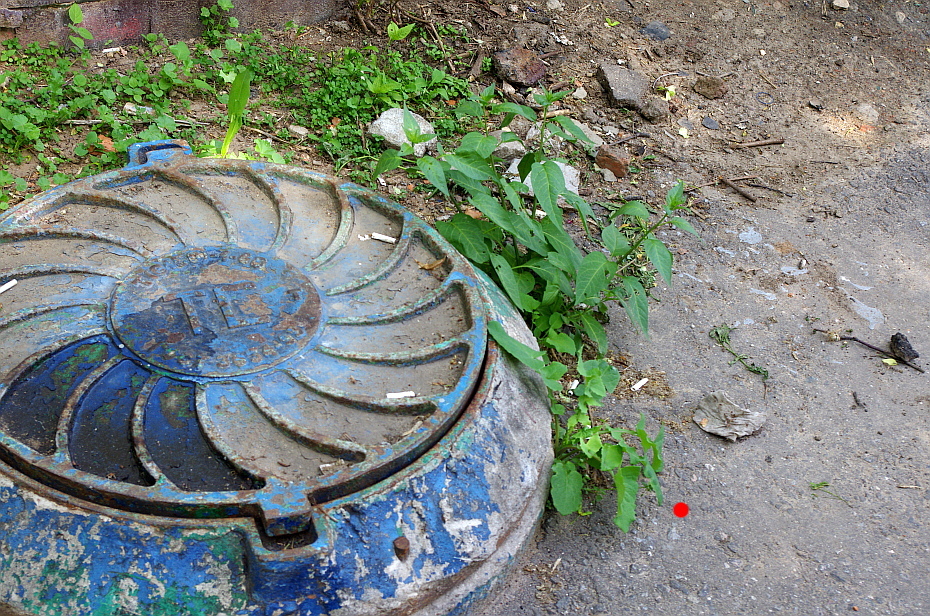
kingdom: Plantae
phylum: Tracheophyta
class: Magnoliopsida
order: Asterales
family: Asteraceae
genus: Sonchus
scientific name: Sonchus oleraceus
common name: Common sowthistle
